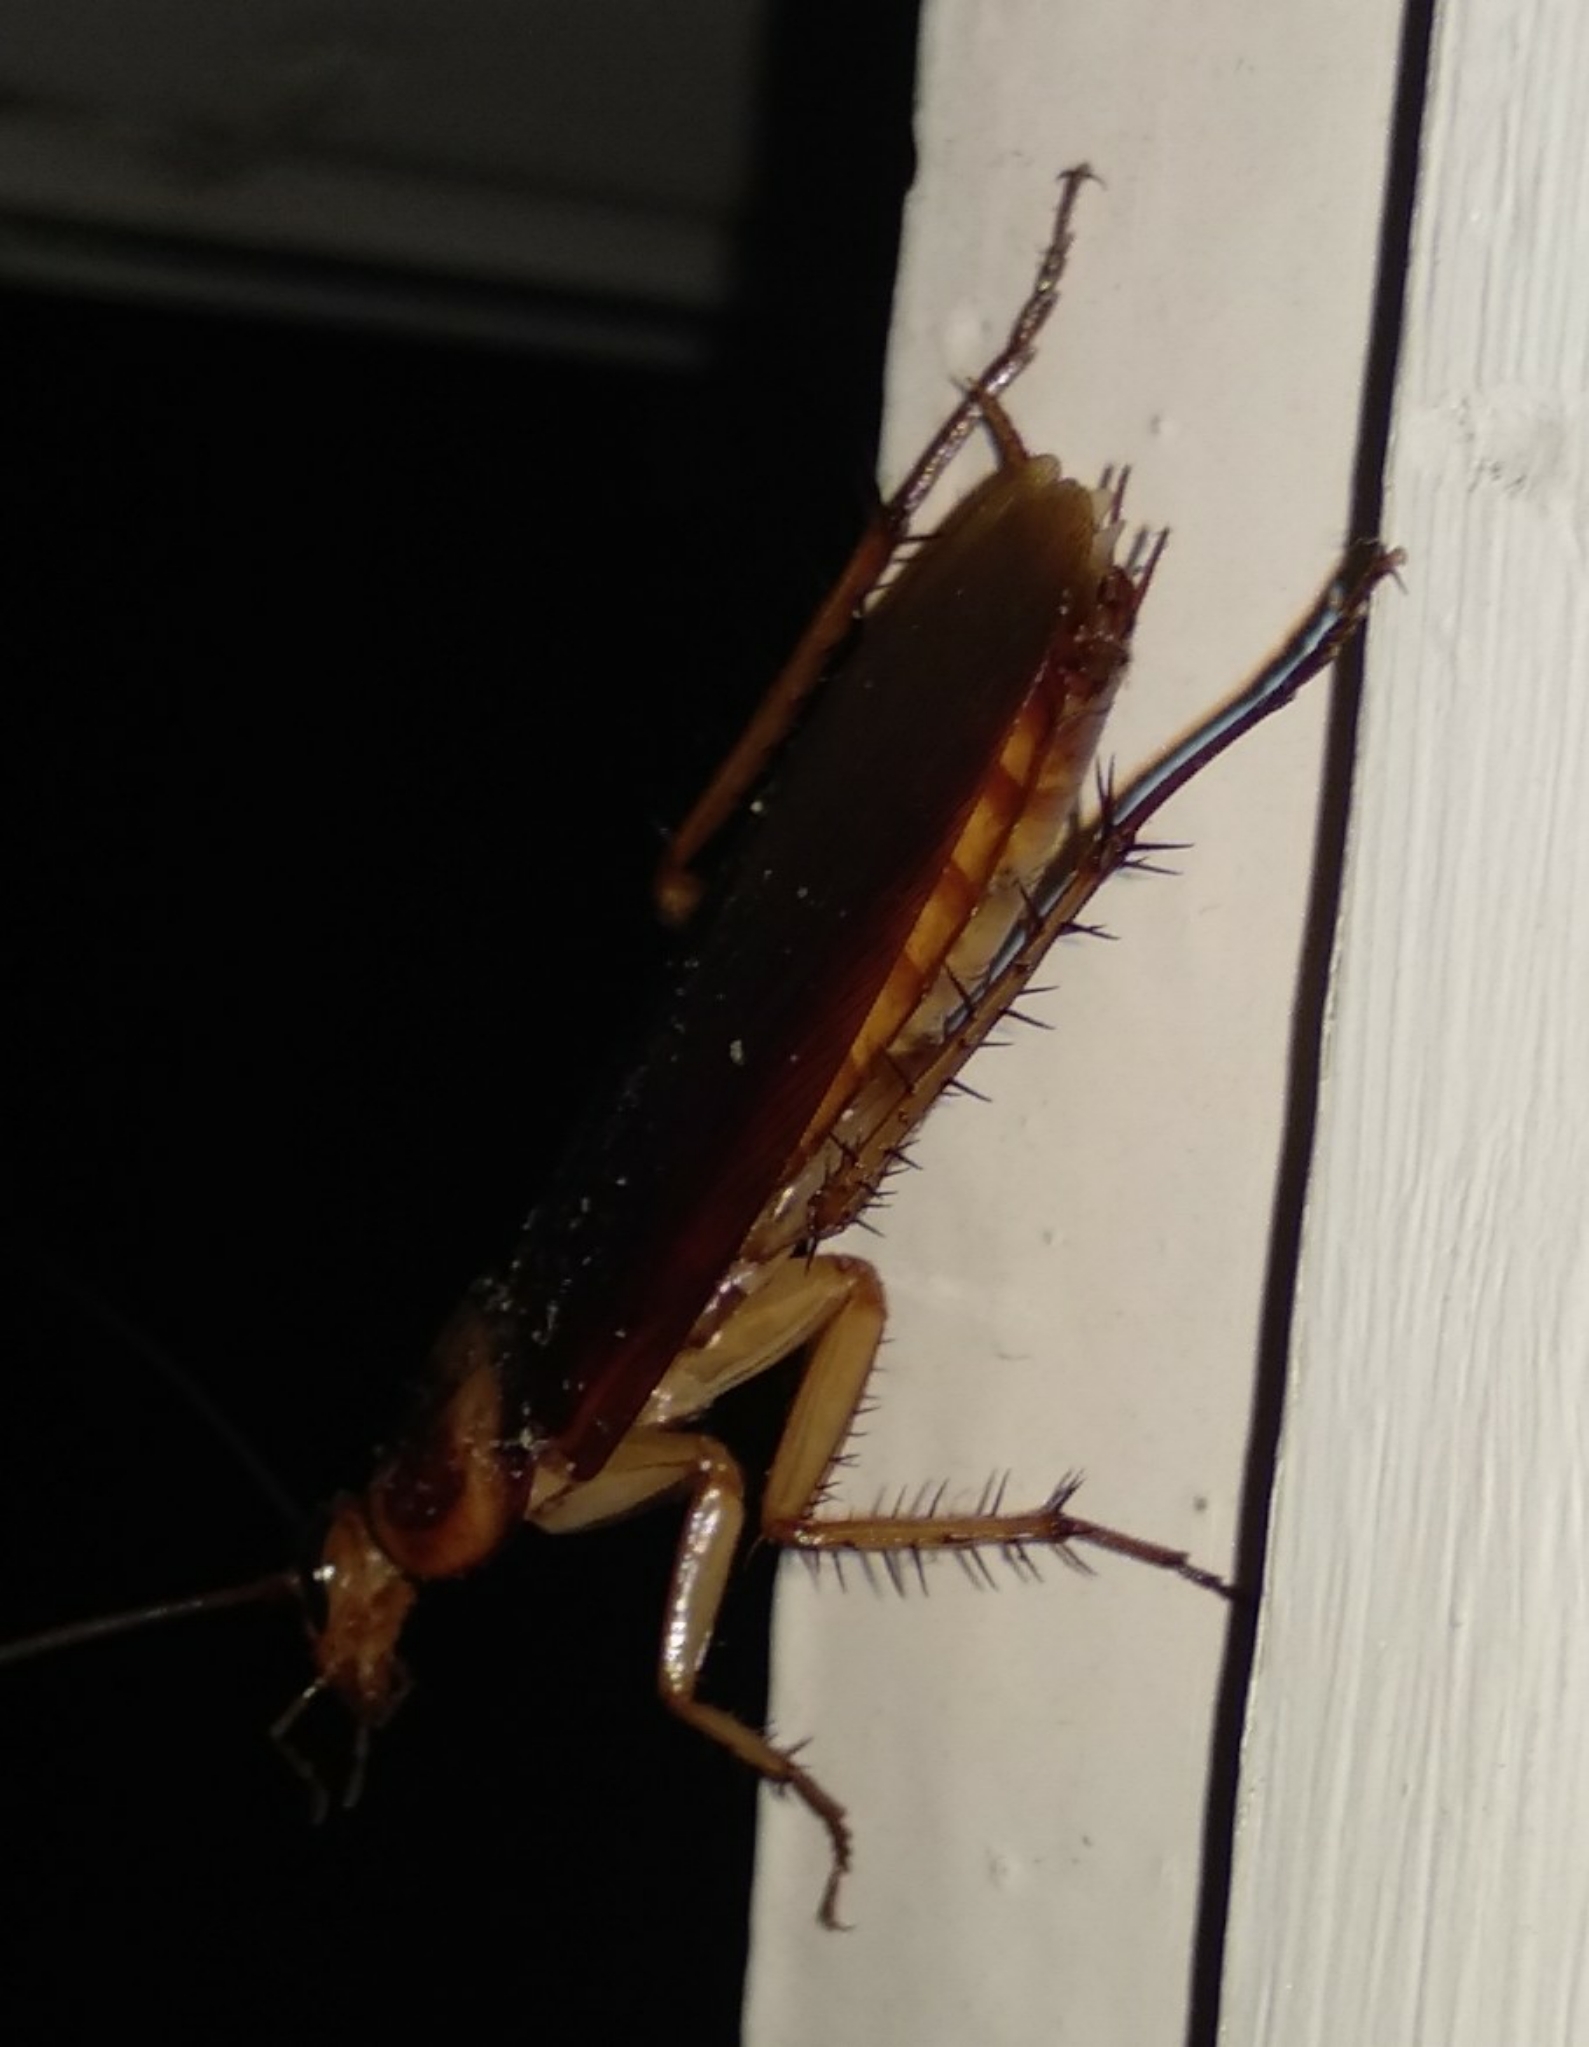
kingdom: Animalia
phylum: Arthropoda
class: Insecta
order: Blattodea
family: Blattidae
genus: Periplaneta
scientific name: Periplaneta americana
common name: American cockroach
